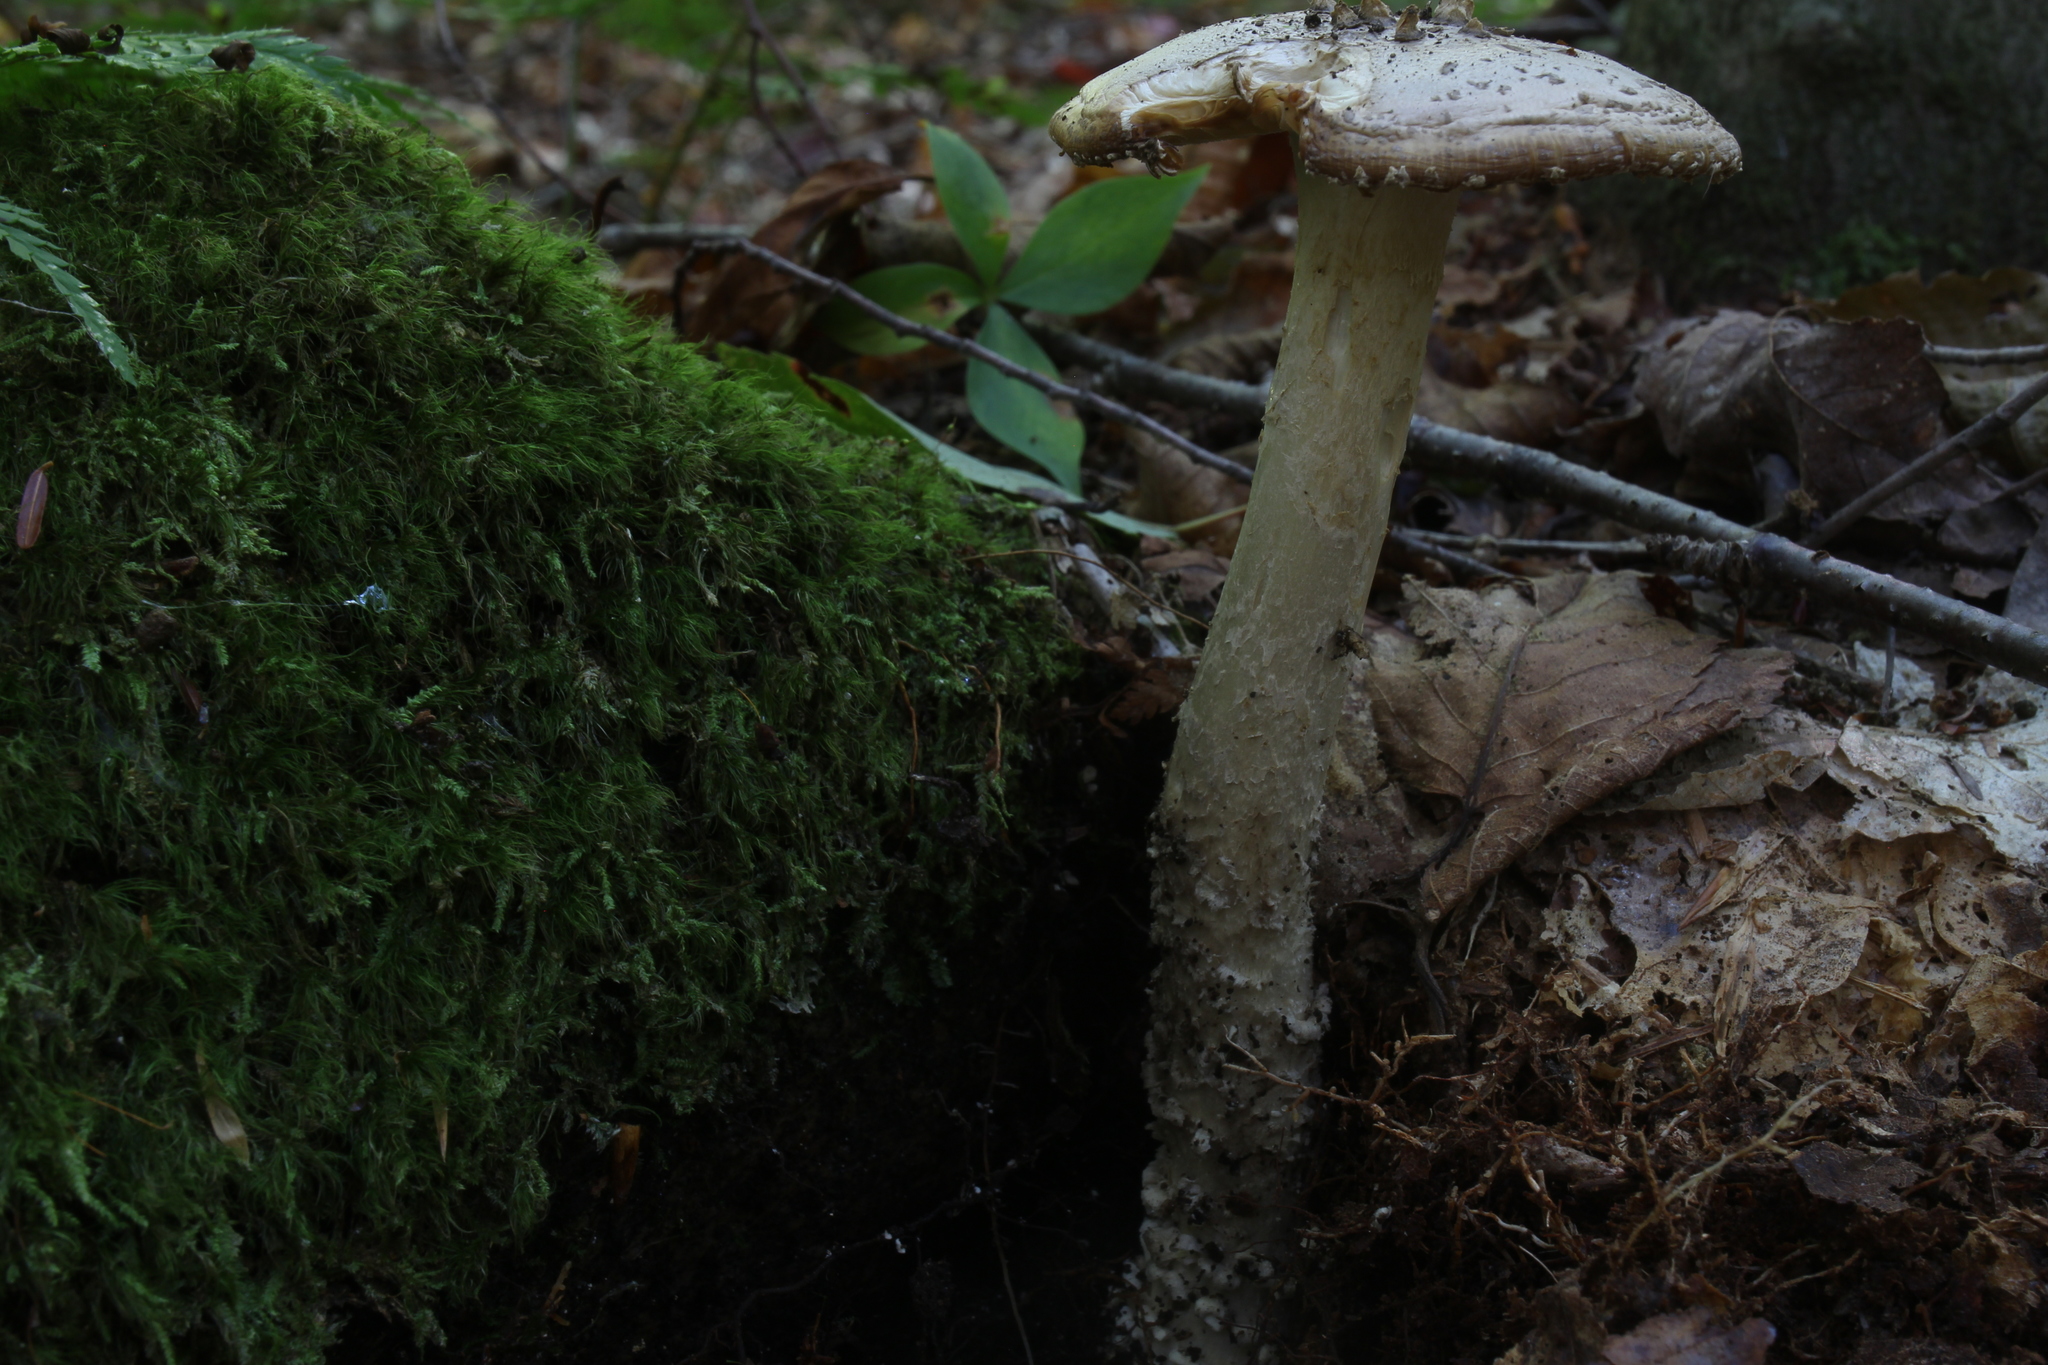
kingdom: Fungi
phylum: Basidiomycota
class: Agaricomycetes
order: Agaricales
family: Amanitaceae
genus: Amanita
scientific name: Amanita onusta
